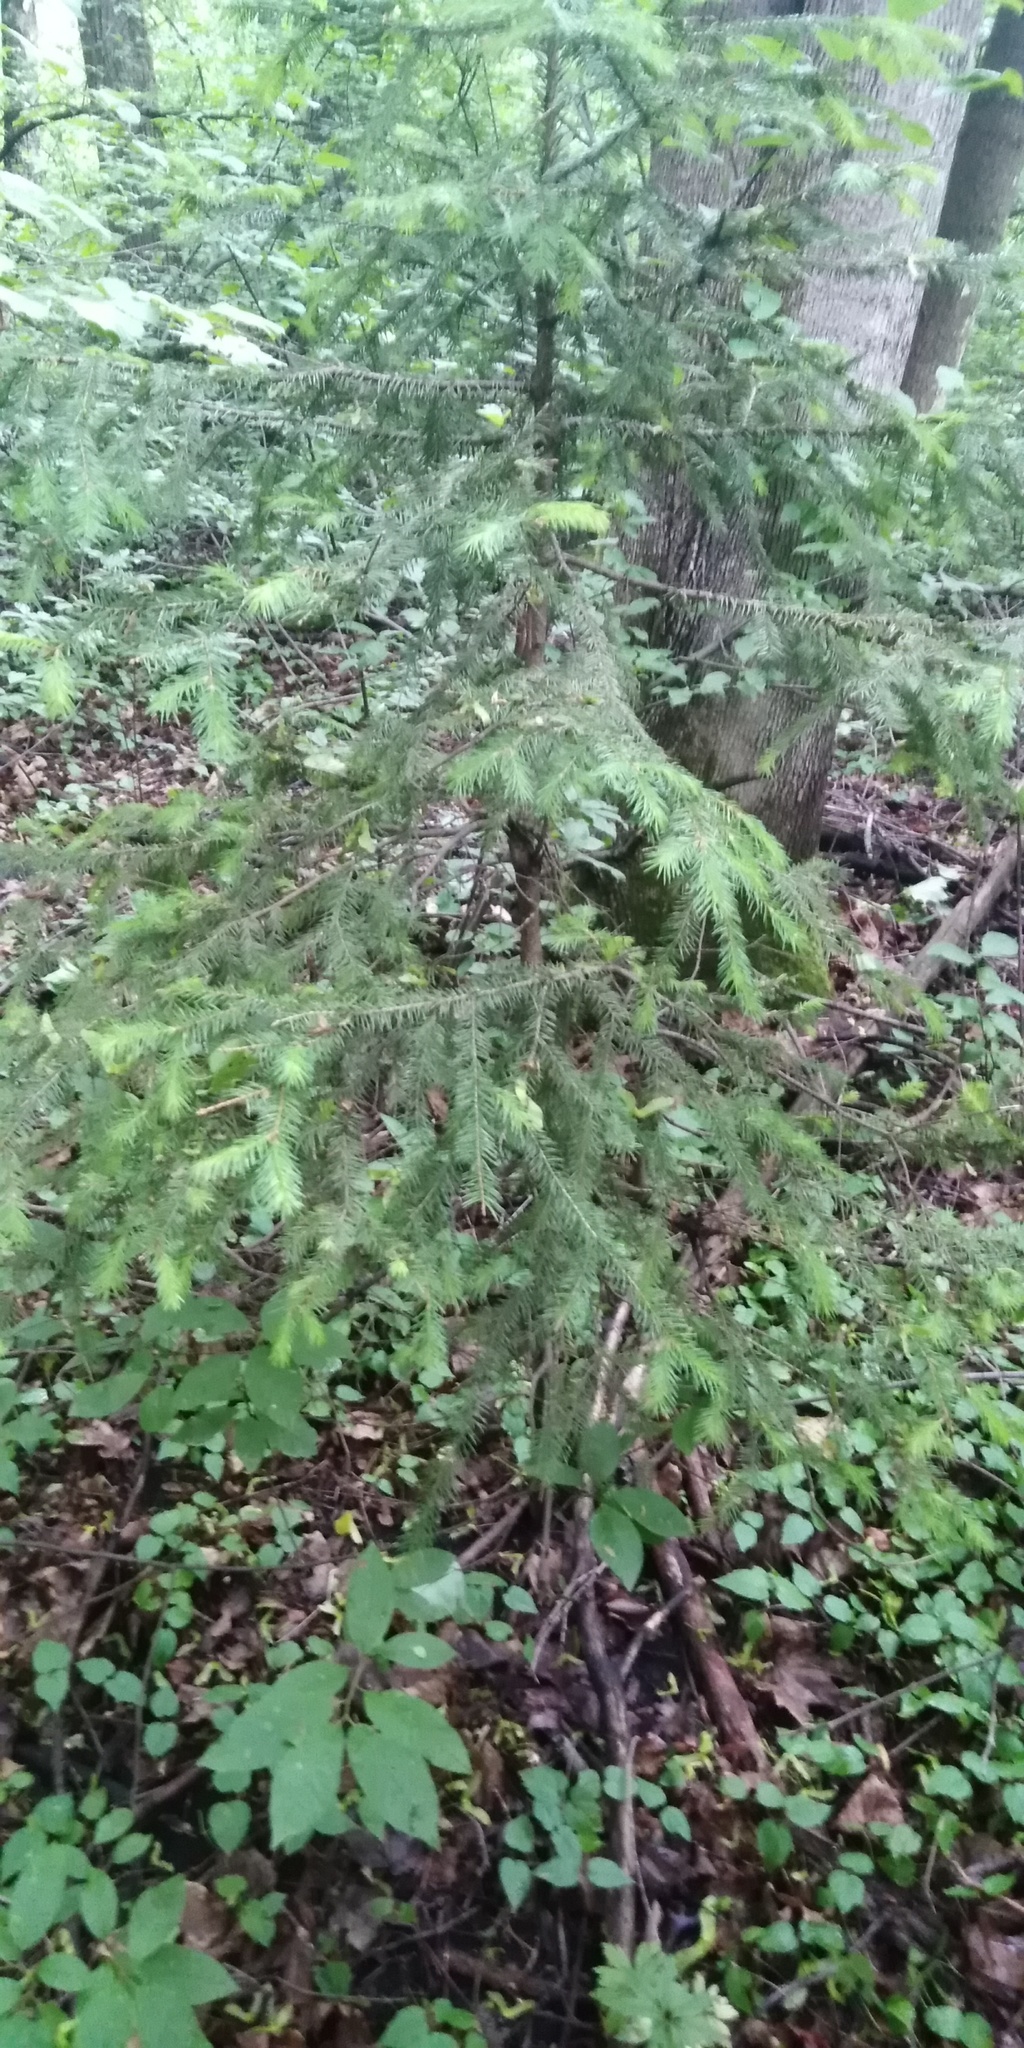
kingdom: Plantae
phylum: Tracheophyta
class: Pinopsida
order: Pinales
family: Pinaceae
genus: Picea
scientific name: Picea abies
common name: Norway spruce
